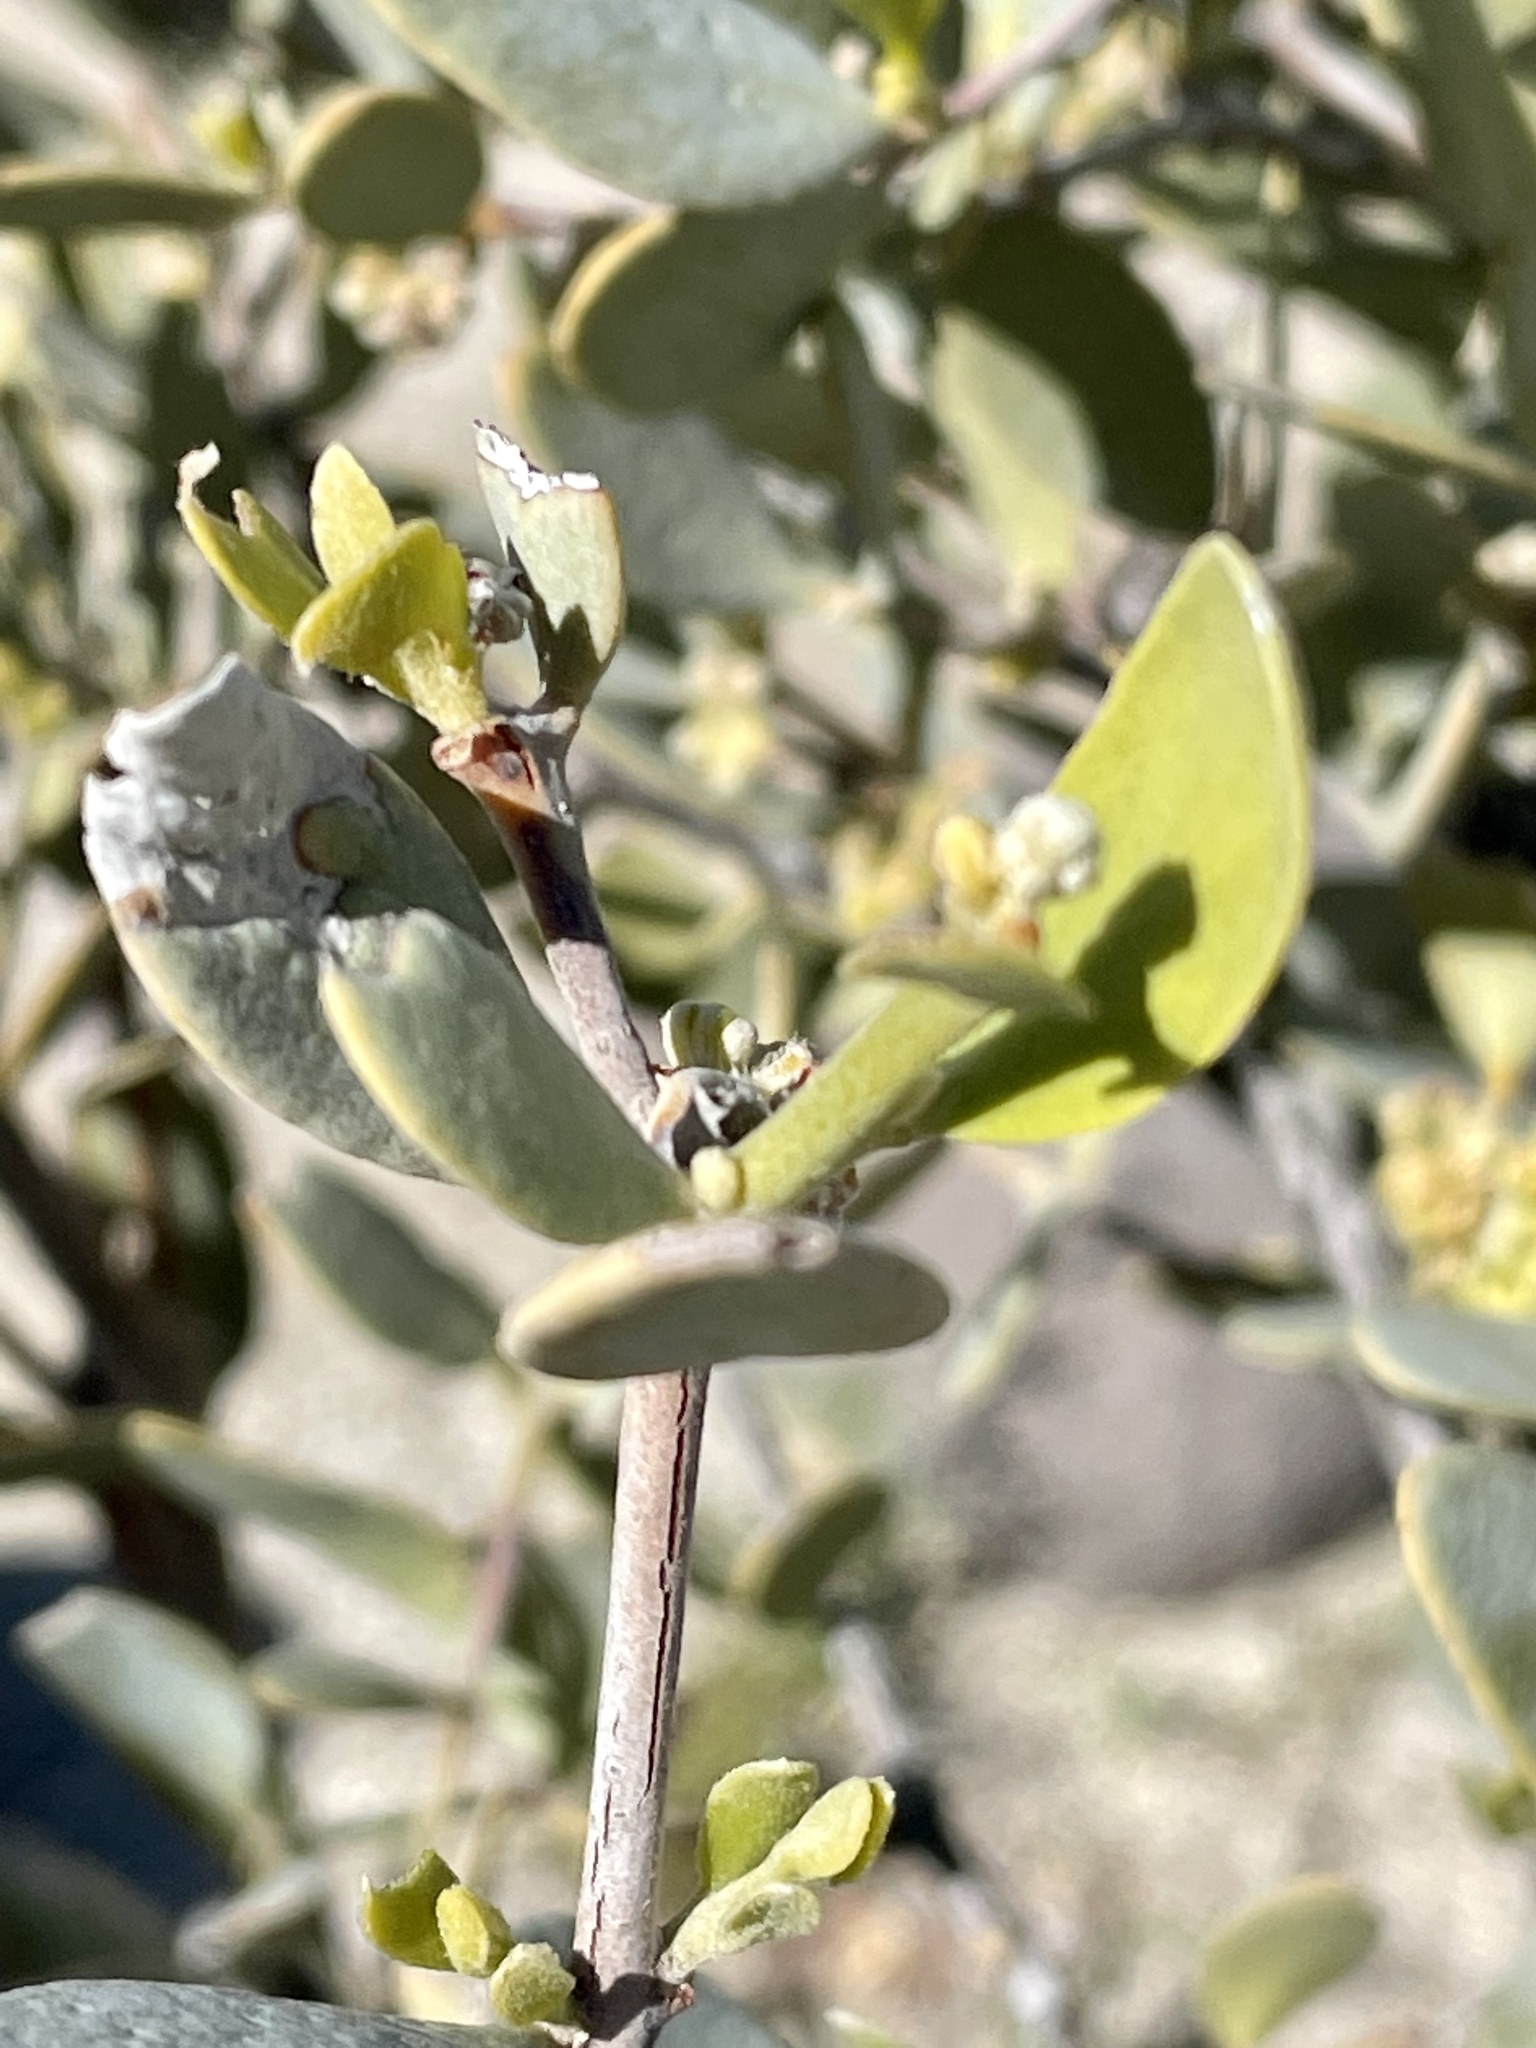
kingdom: Plantae
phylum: Tracheophyta
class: Magnoliopsida
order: Caryophyllales
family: Simmondsiaceae
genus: Simmondsia
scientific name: Simmondsia chinensis
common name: Jojoba
